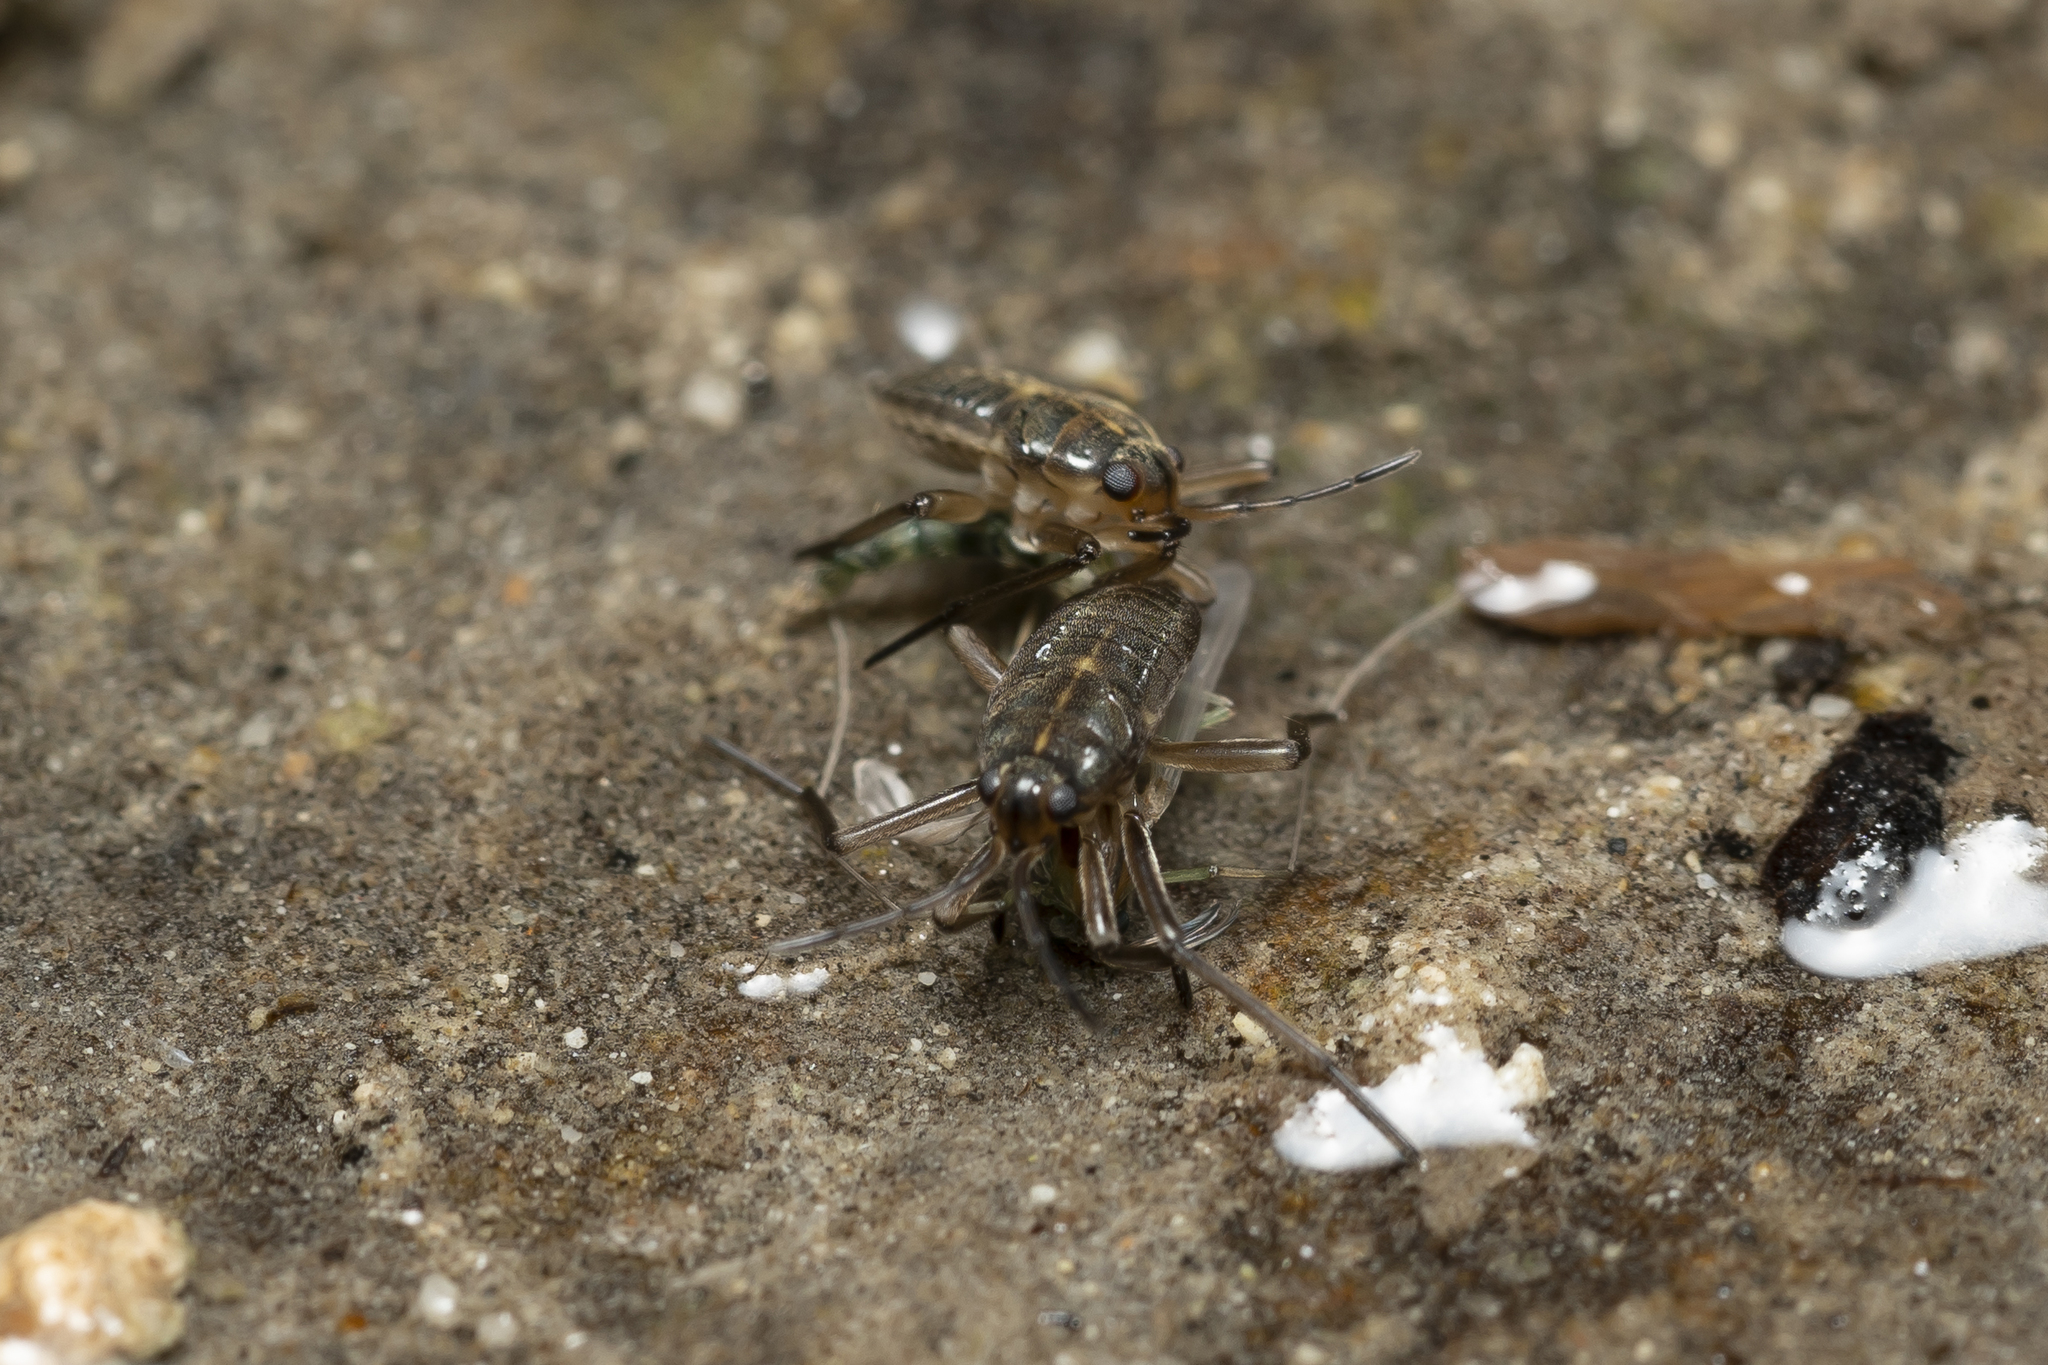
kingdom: Animalia
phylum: Arthropoda
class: Insecta
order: Hemiptera
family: Veliidae
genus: Velia
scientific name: Velia
